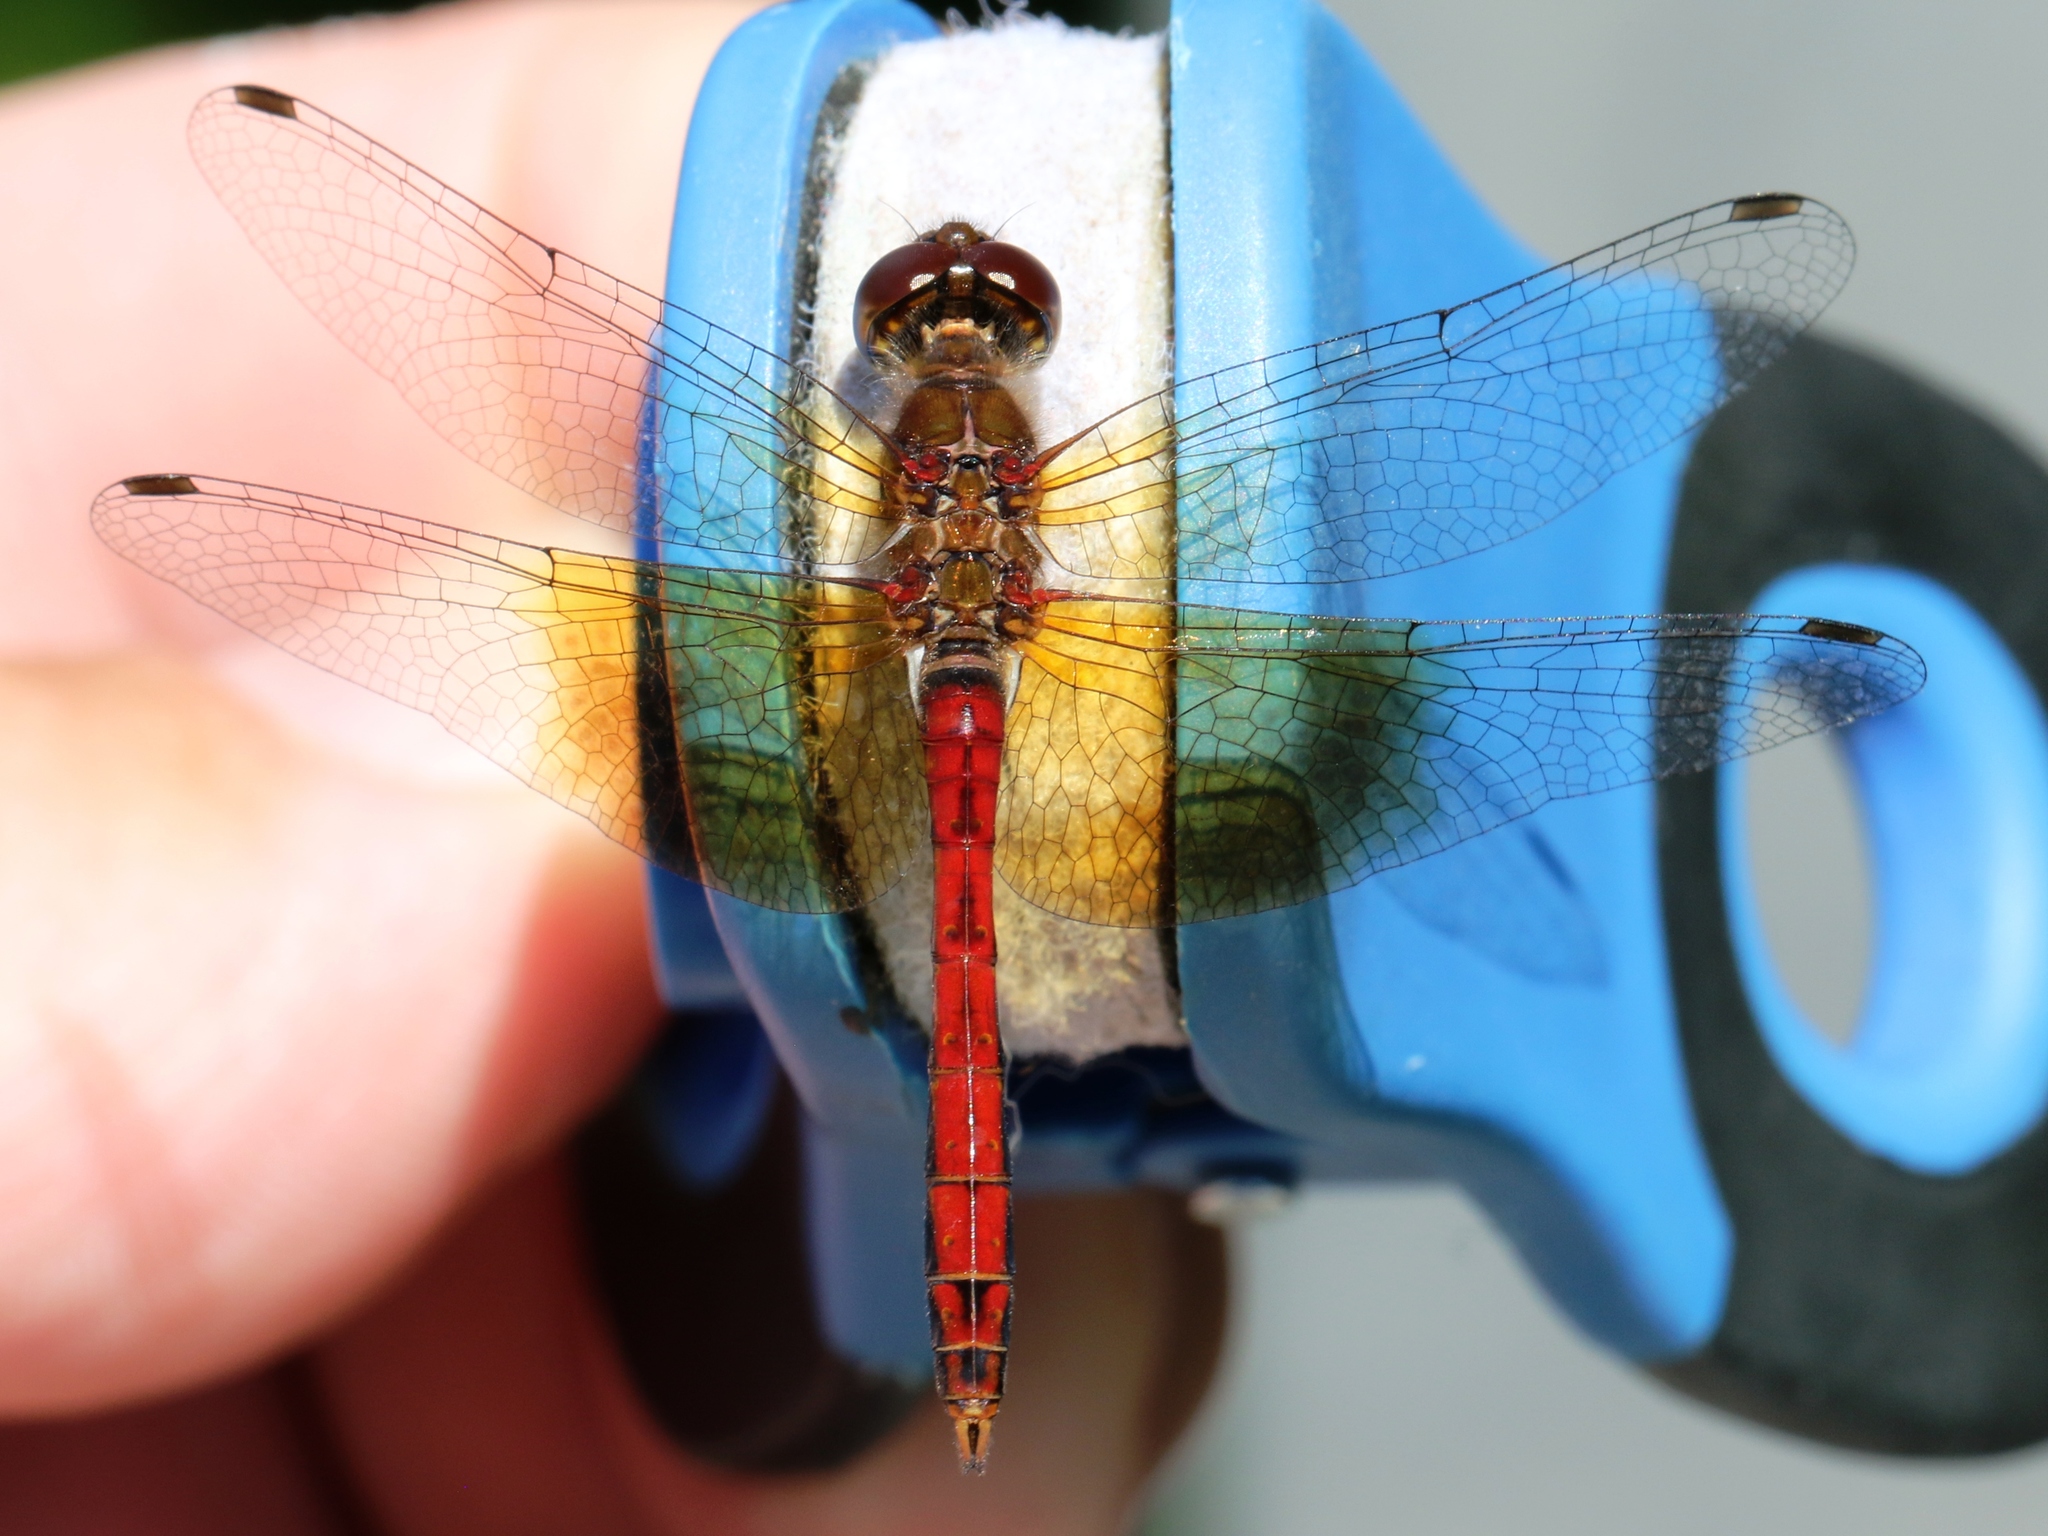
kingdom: Animalia
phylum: Arthropoda
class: Insecta
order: Odonata
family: Libellulidae
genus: Sympetrum
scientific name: Sympetrum semicinctum
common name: Band-winged meadowhawk
